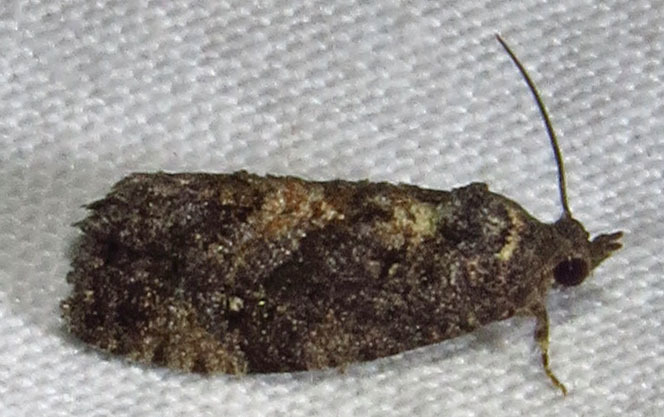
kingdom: Animalia
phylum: Arthropoda
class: Insecta
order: Lepidoptera
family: Tortricidae
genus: Gymnandrosoma
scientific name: Gymnandrosoma punctidiscanum
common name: Dotted ecdytolopha moth
